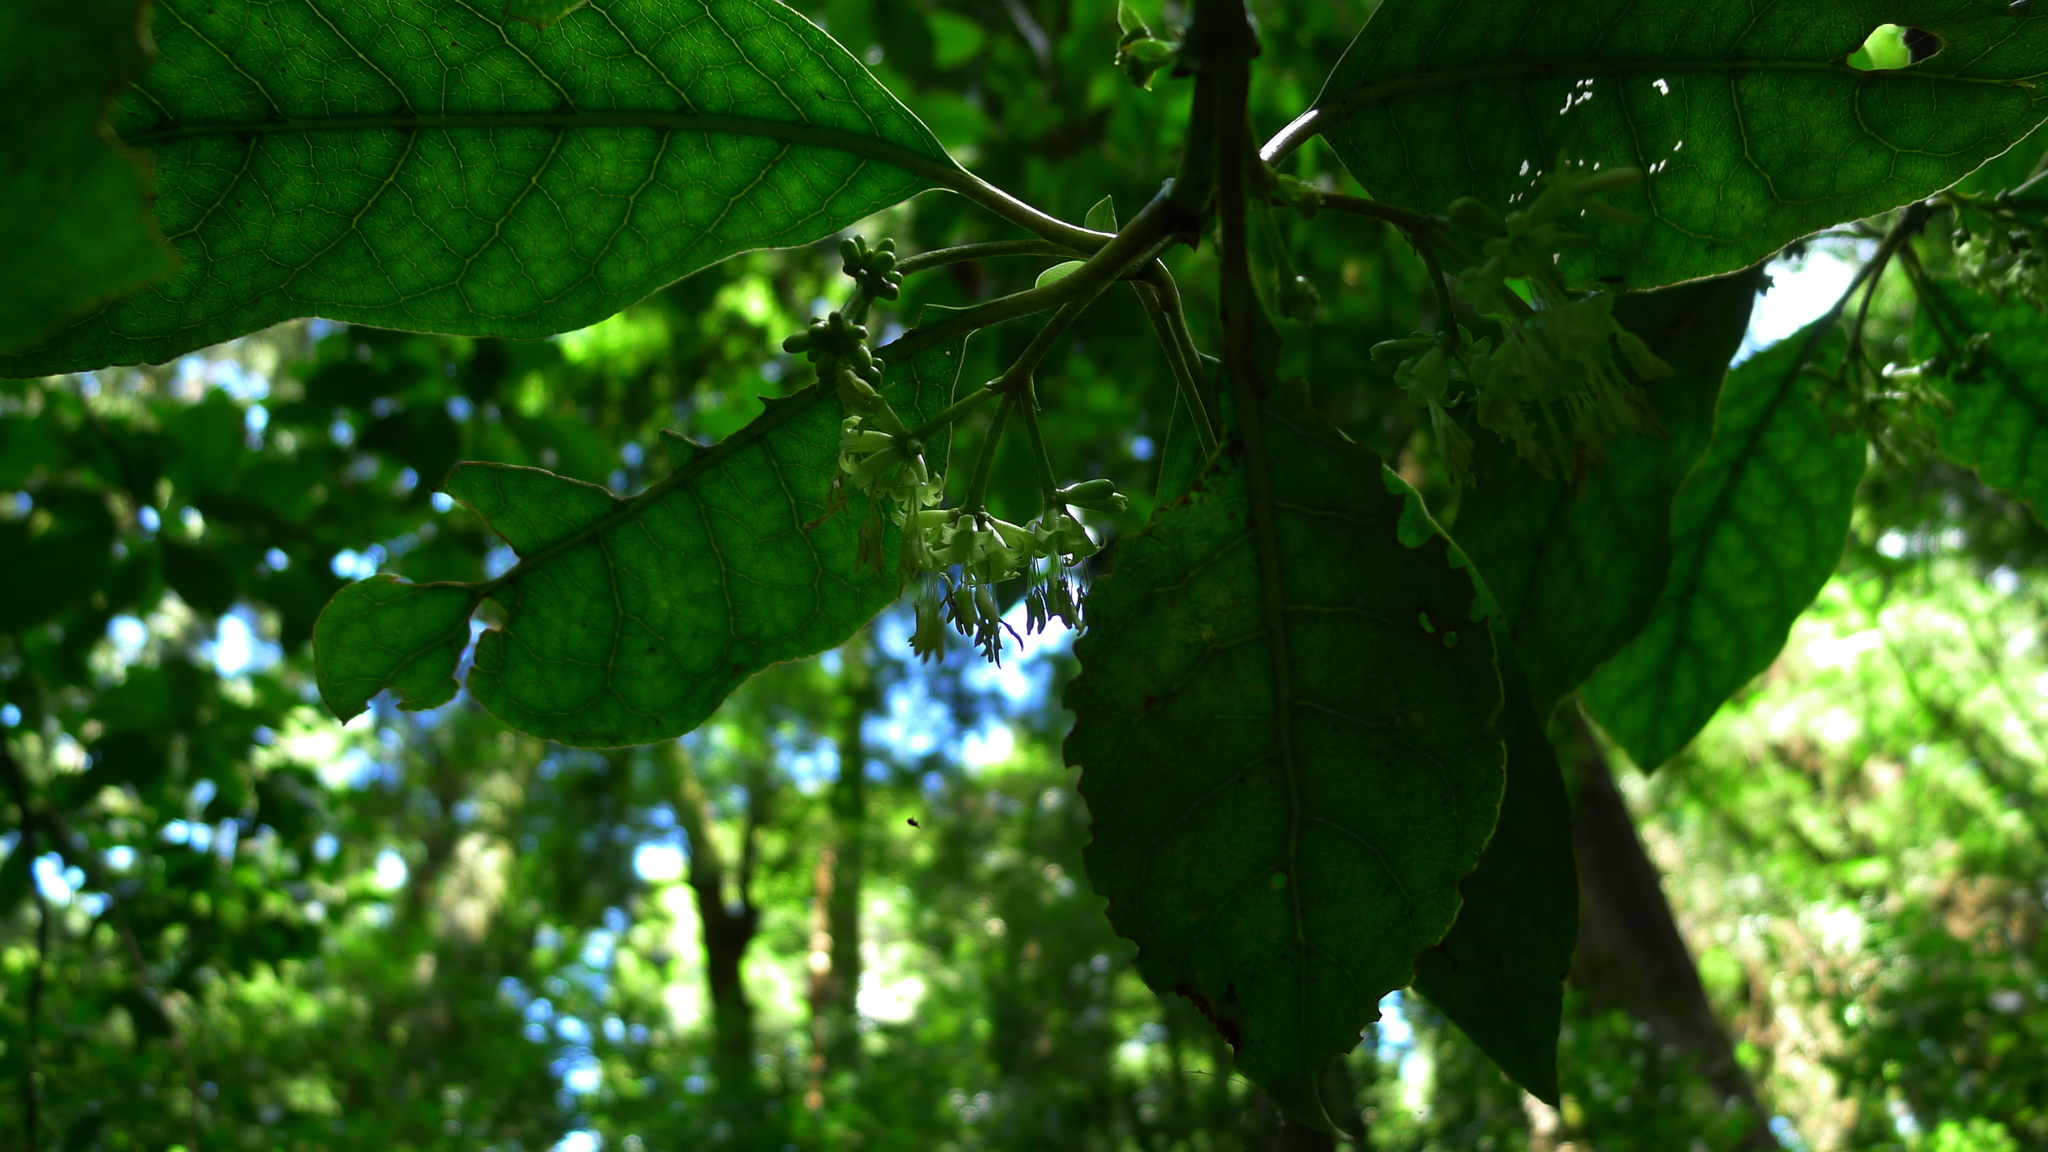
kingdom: Plantae
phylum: Tracheophyta
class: Magnoliopsida
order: Gentianales
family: Rubiaceae
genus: Coprosma
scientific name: Coprosma autumnalis
